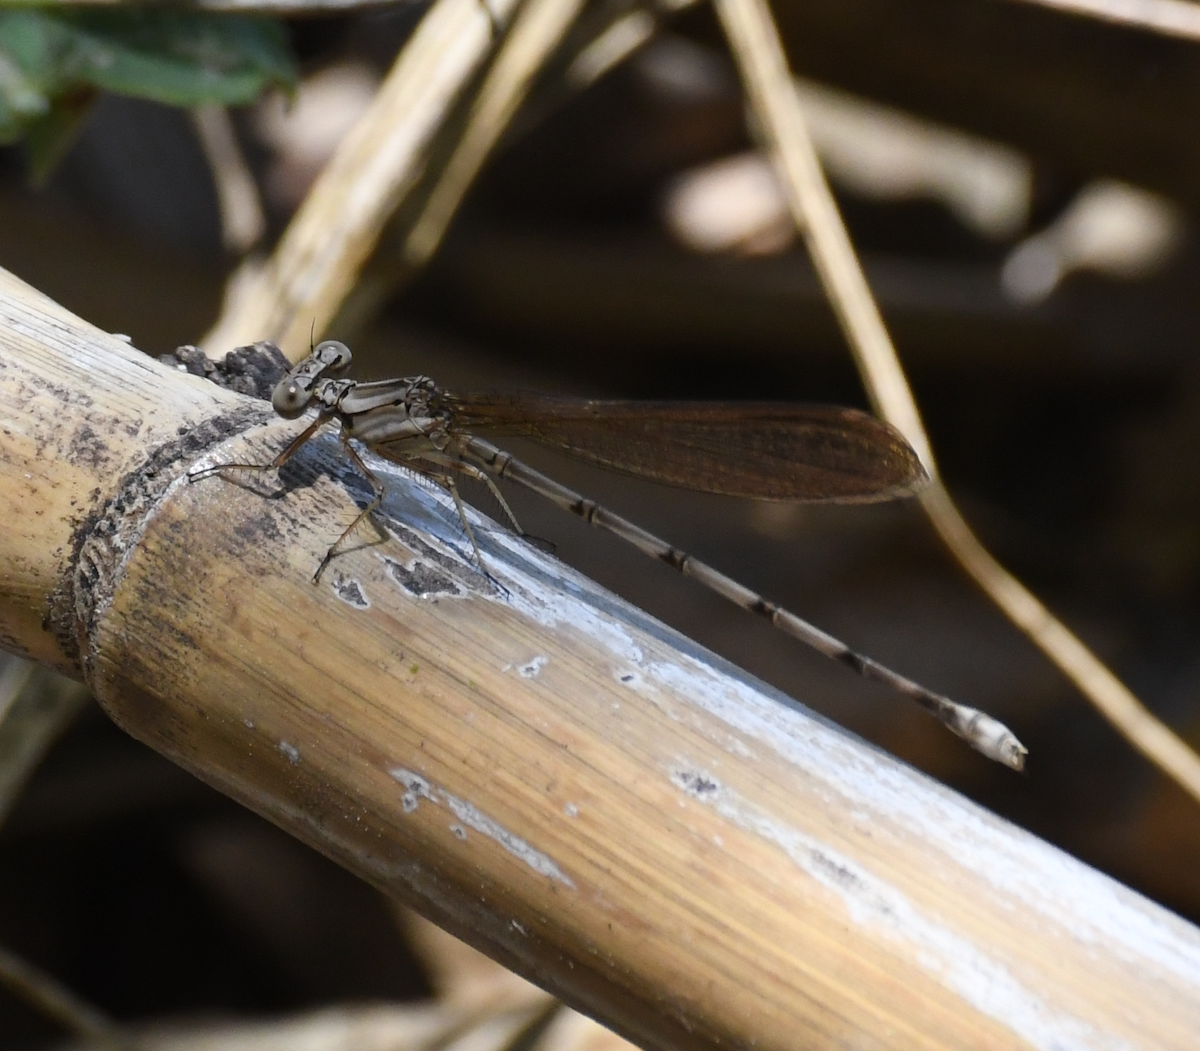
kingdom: Animalia
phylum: Arthropoda
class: Insecta
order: Odonata
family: Coenagrionidae
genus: Argia
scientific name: Argia elongata
